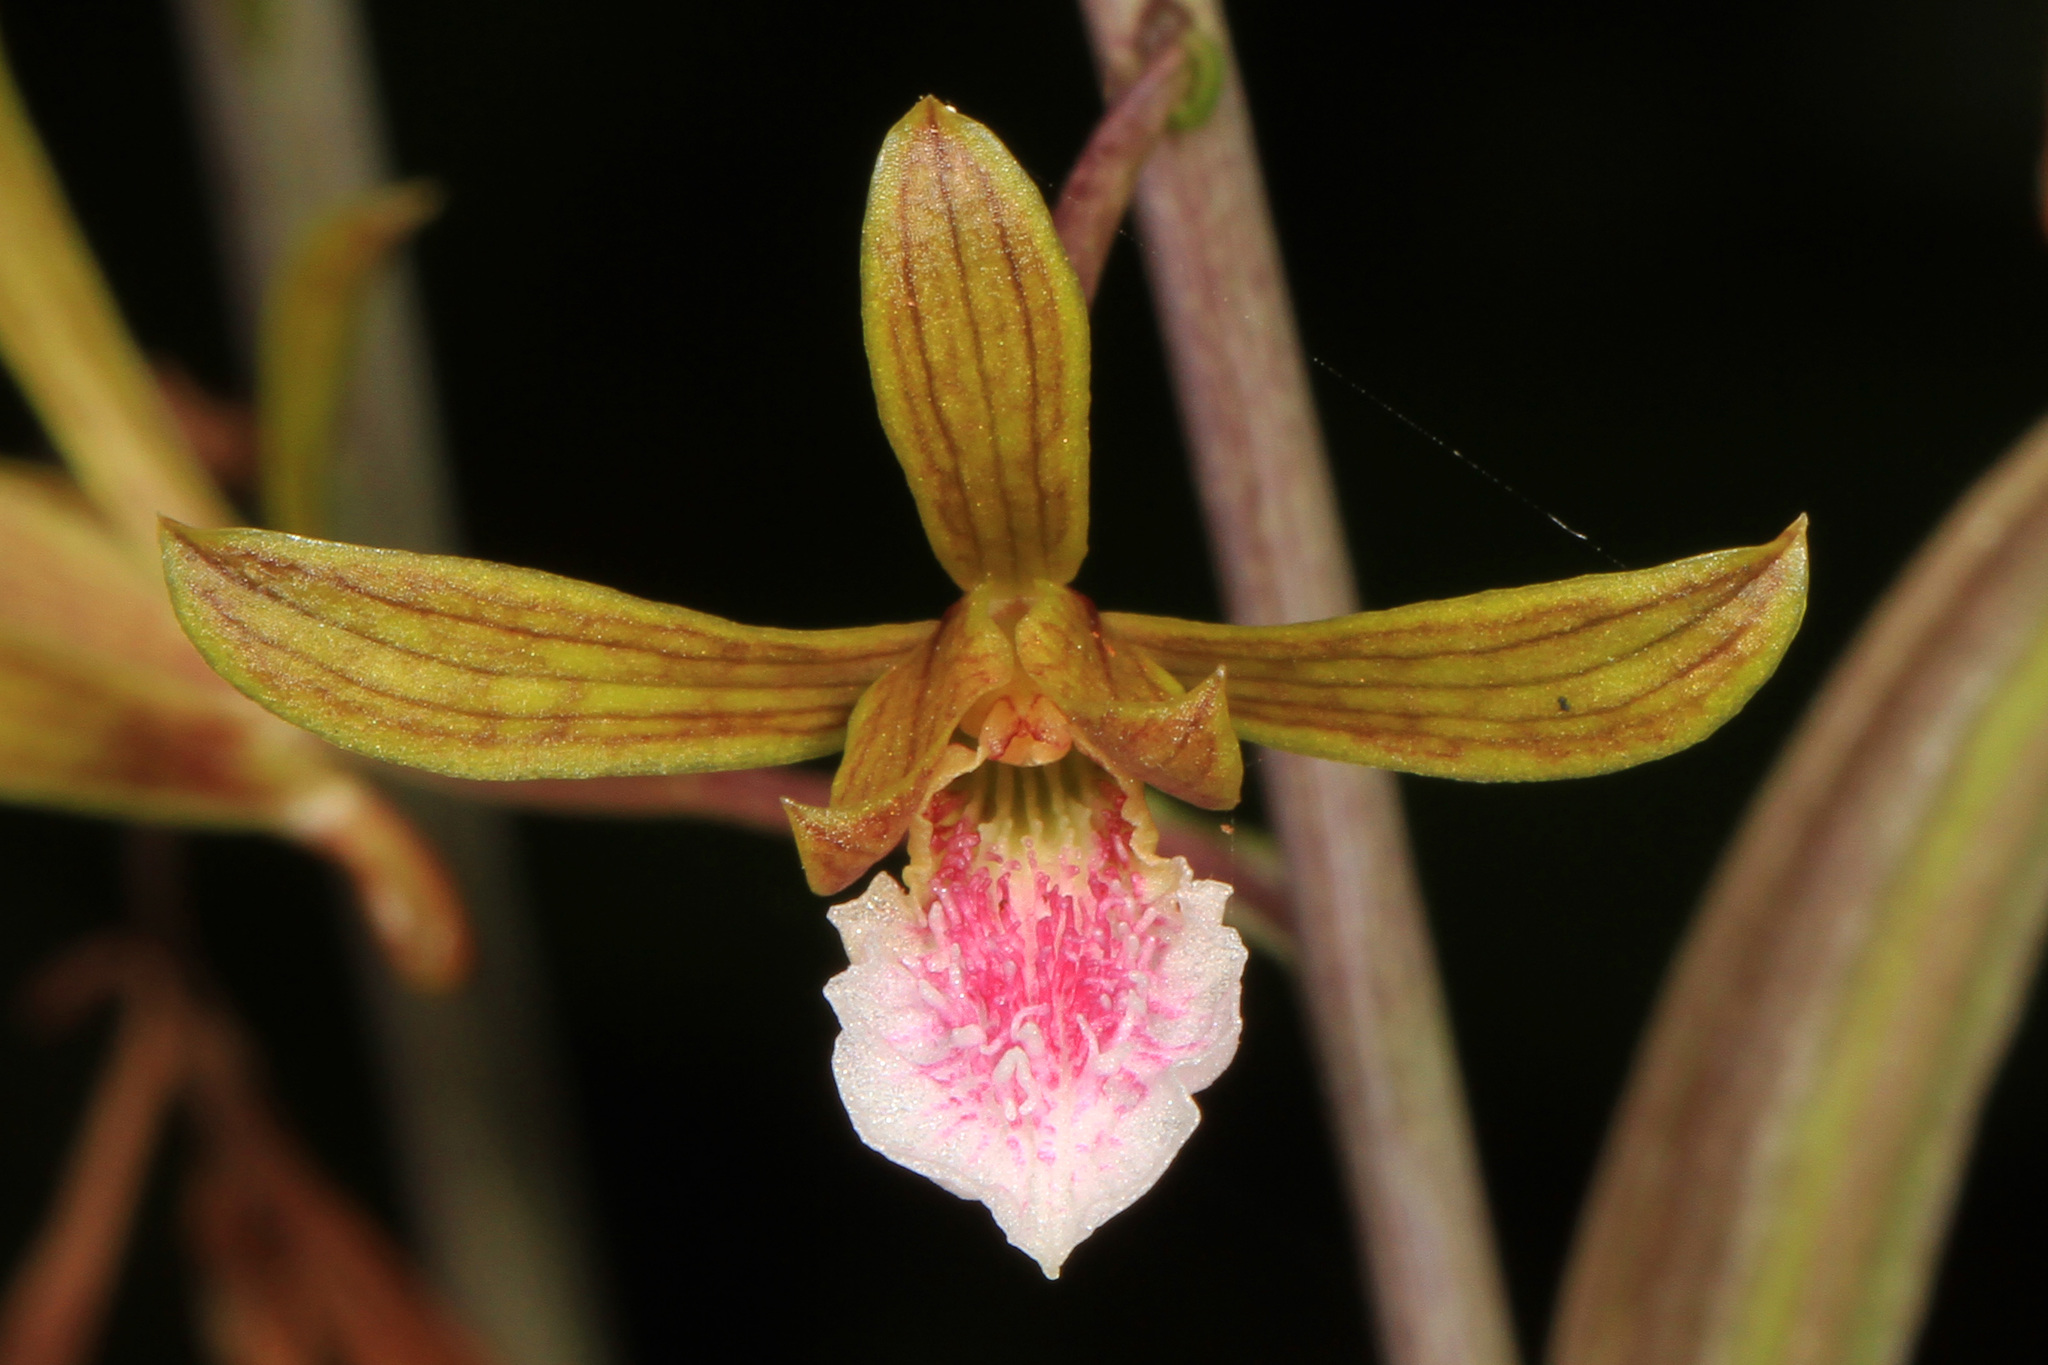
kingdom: Plantae
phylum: Tracheophyta
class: Liliopsida
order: Asparagales
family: Orchidaceae
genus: Eulophia
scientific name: Eulophia graminea
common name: Orchid
